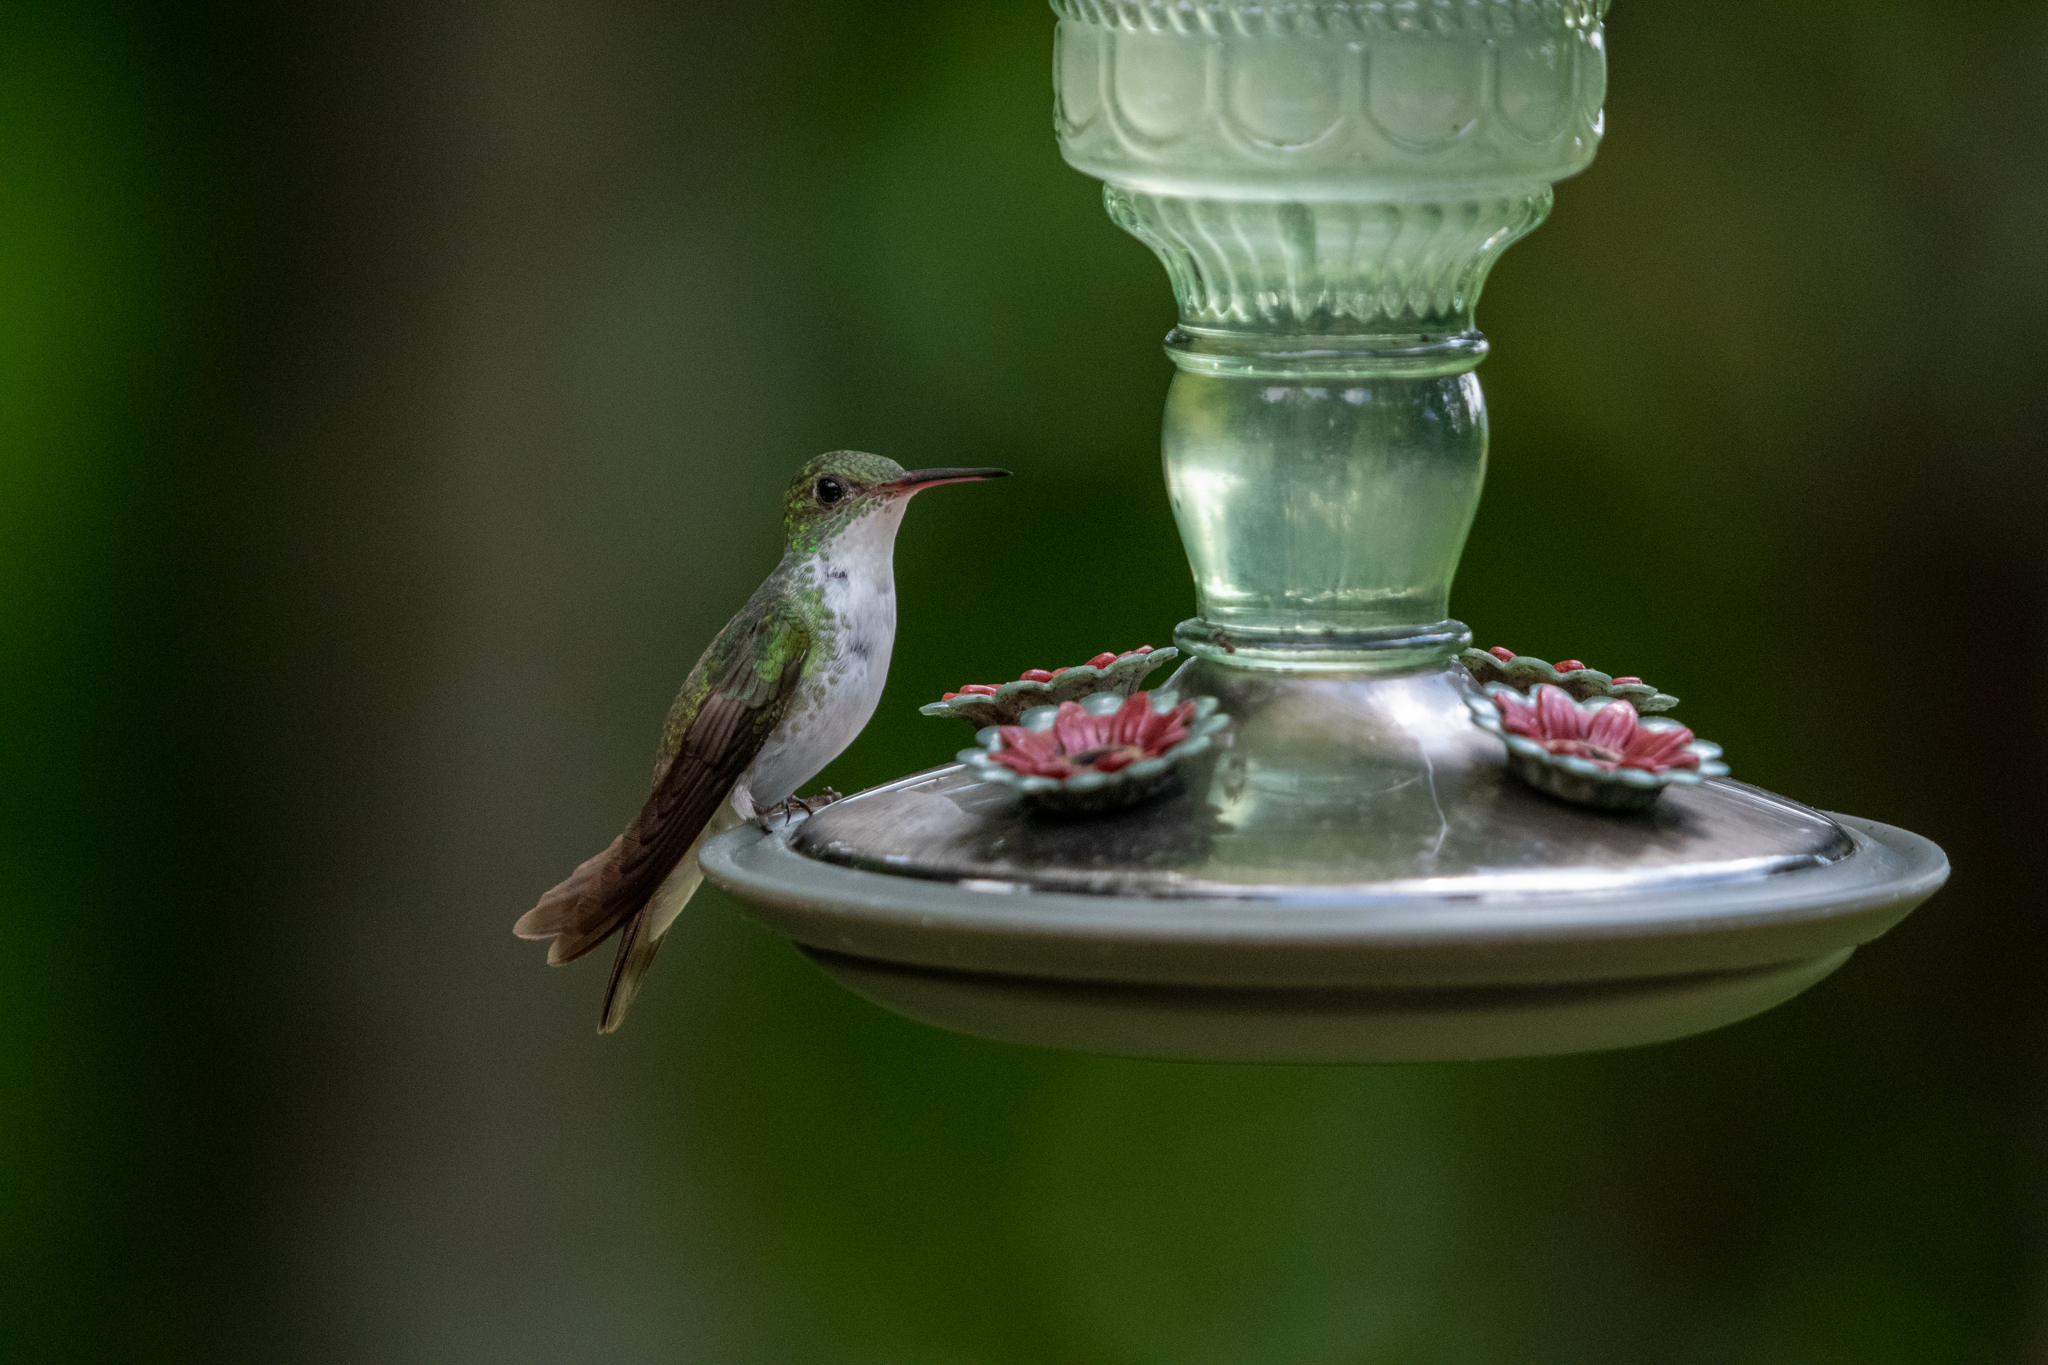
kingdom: Animalia
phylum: Chordata
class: Aves
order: Apodiformes
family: Trochilidae
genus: Chlorestes
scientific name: Chlorestes candida
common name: White-bellied emerald
